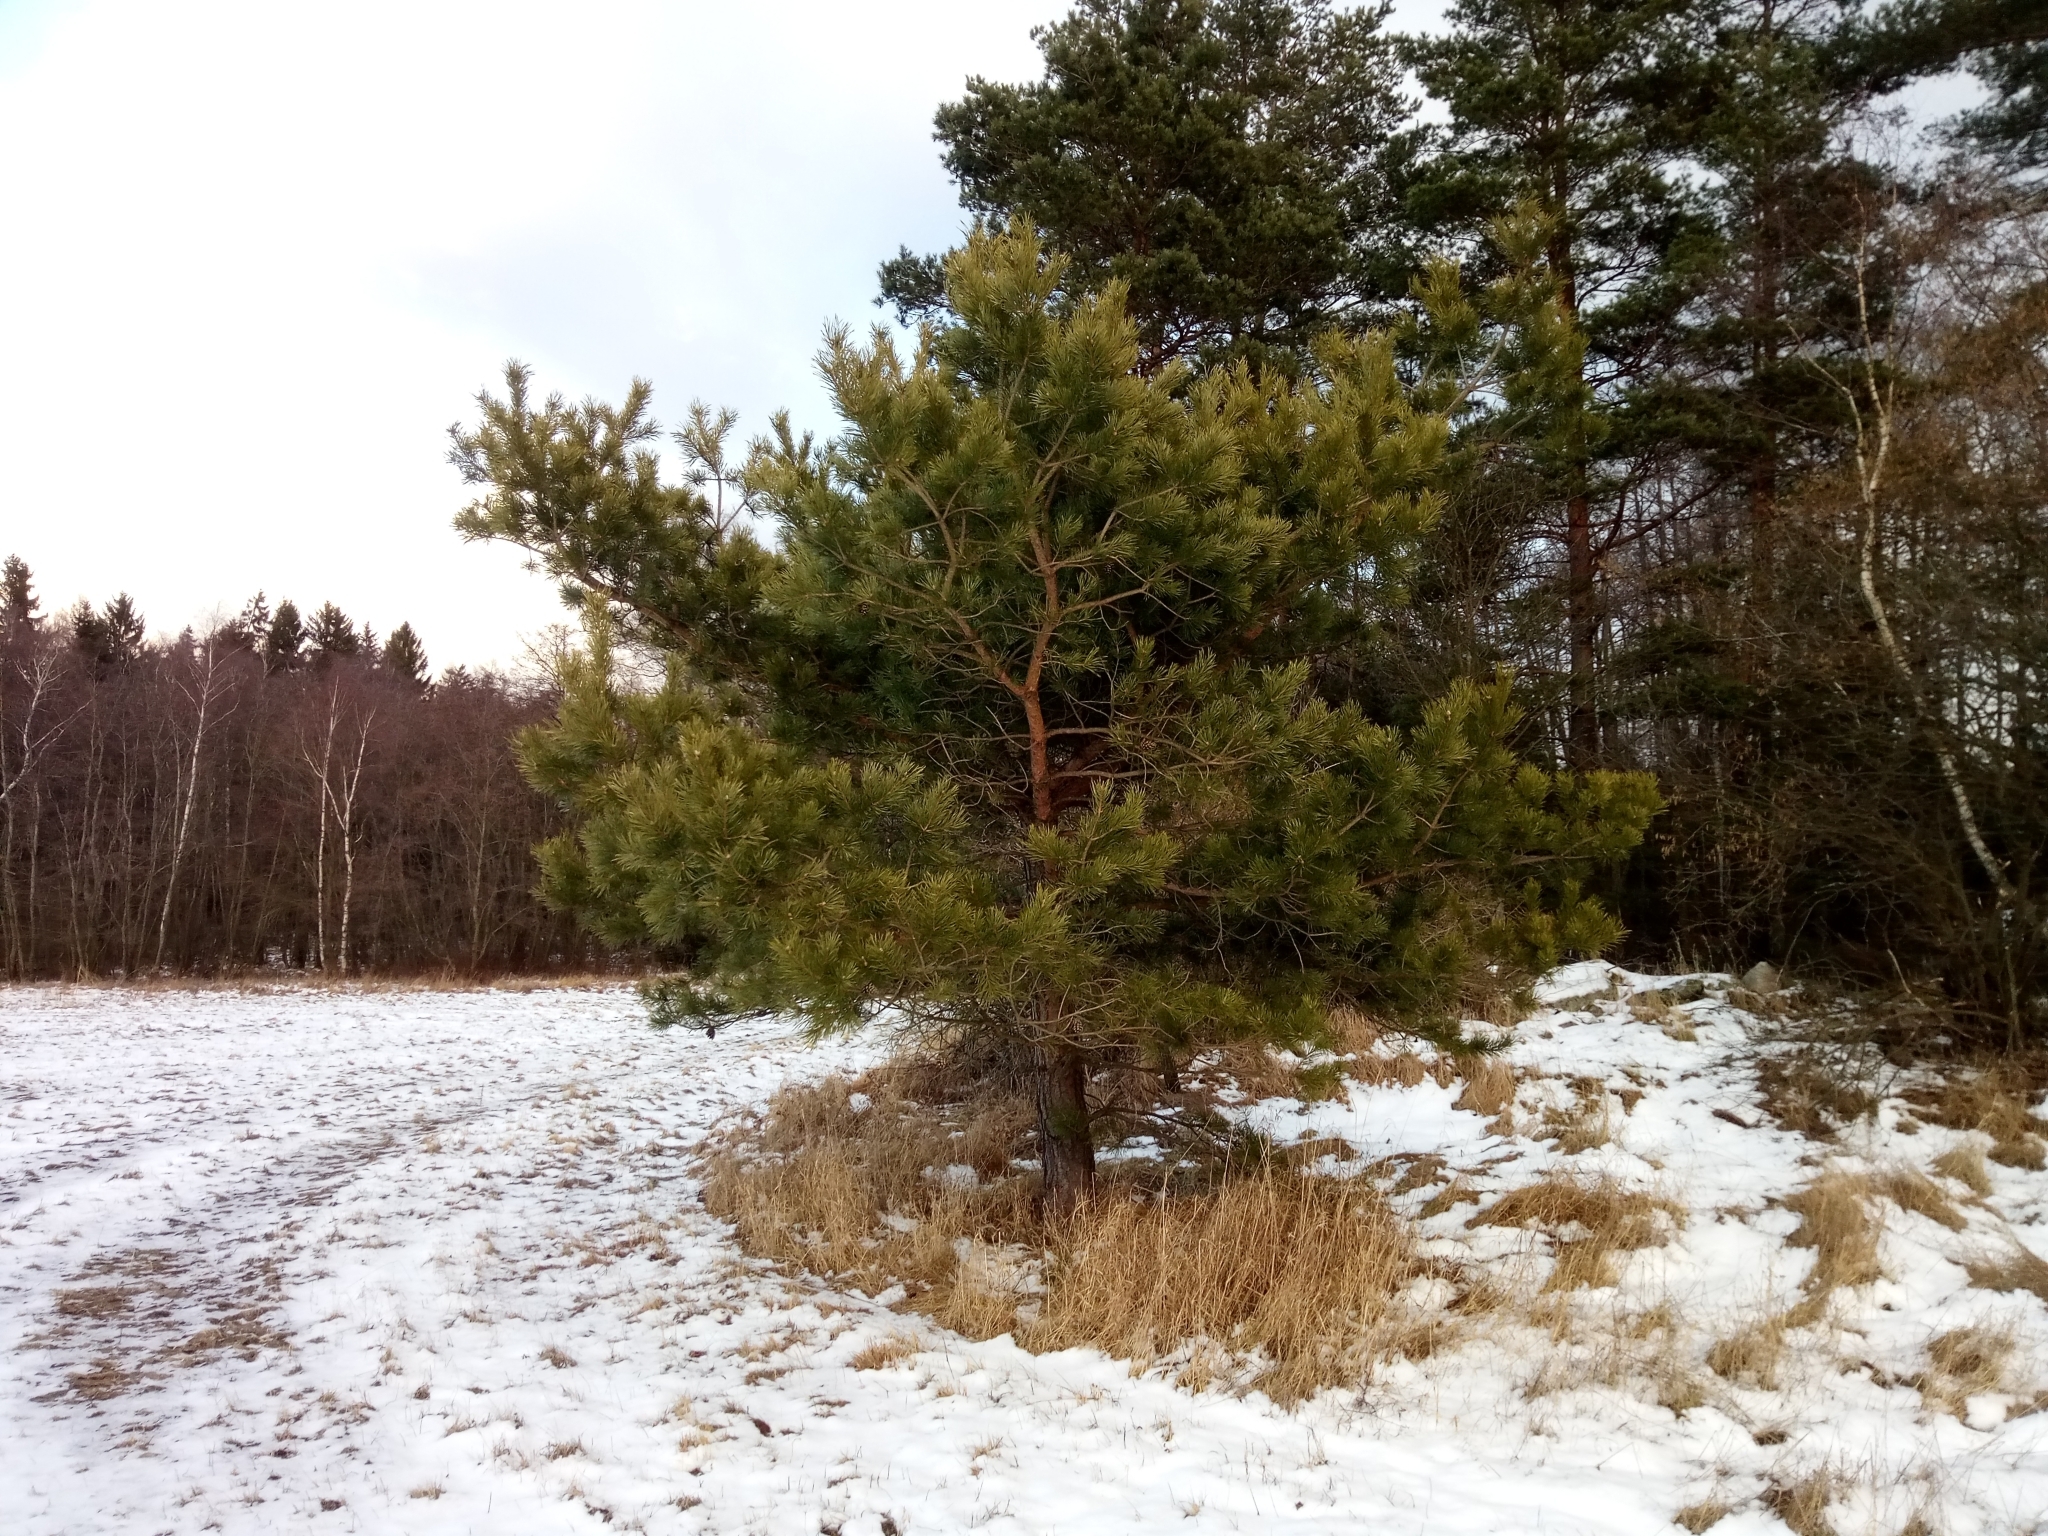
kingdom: Plantae
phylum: Tracheophyta
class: Pinopsida
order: Pinales
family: Pinaceae
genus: Pinus
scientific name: Pinus sylvestris
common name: Scots pine
